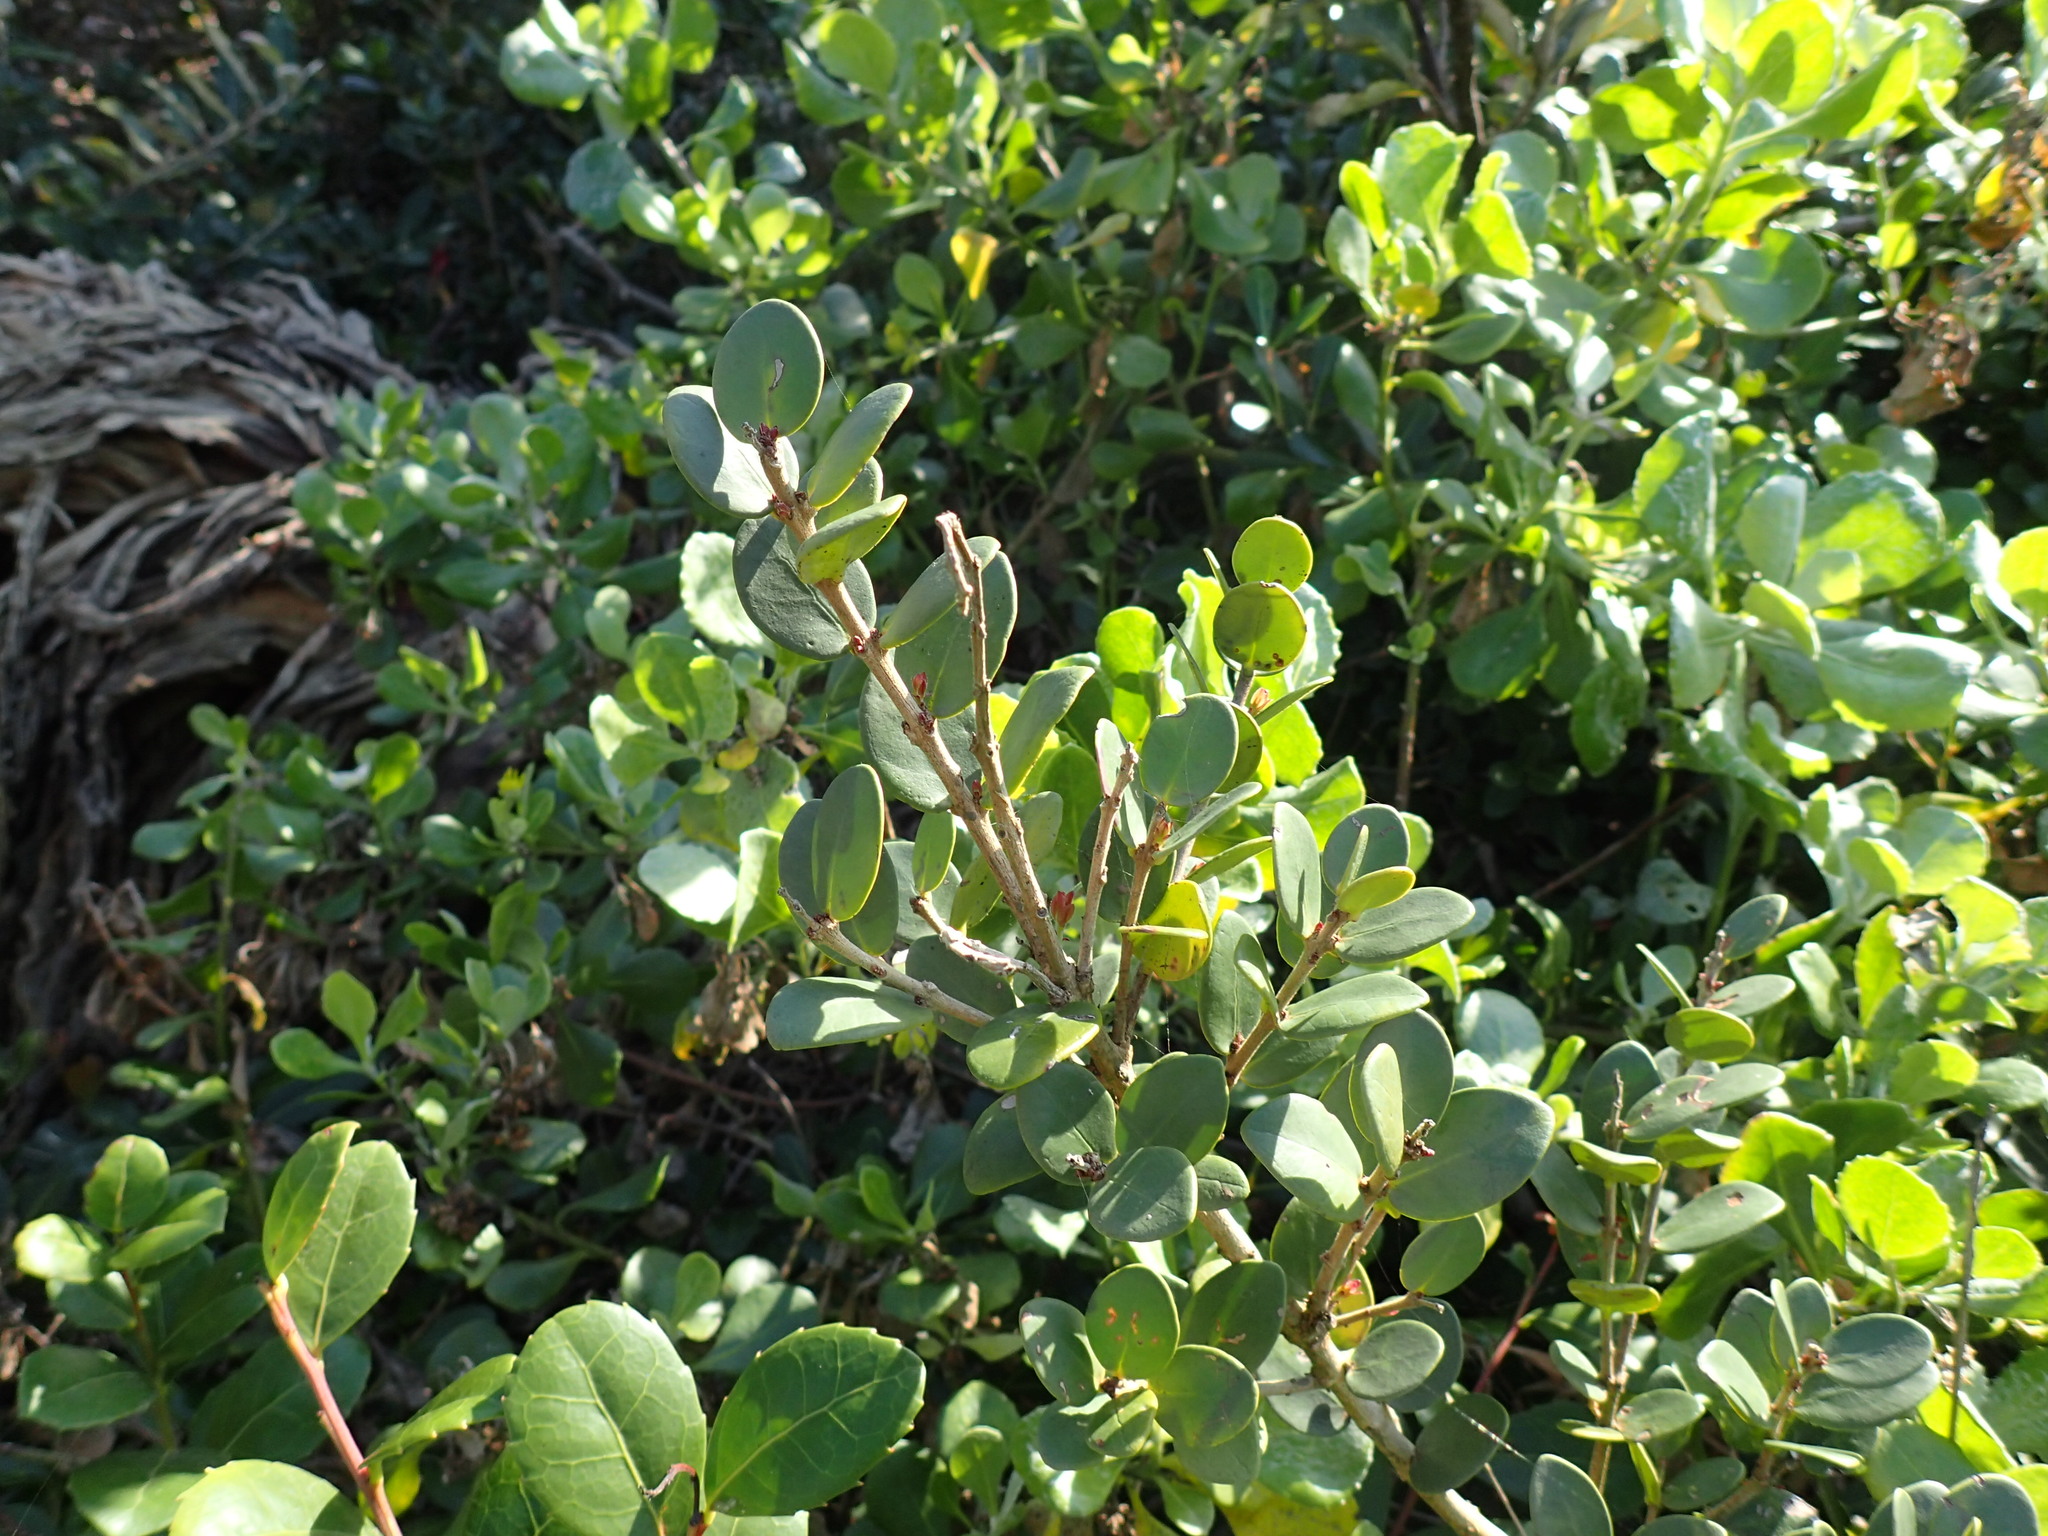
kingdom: Plantae
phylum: Tracheophyta
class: Magnoliopsida
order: Myrtales
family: Myrtaceae
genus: Eugenia
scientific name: Eugenia capensis
